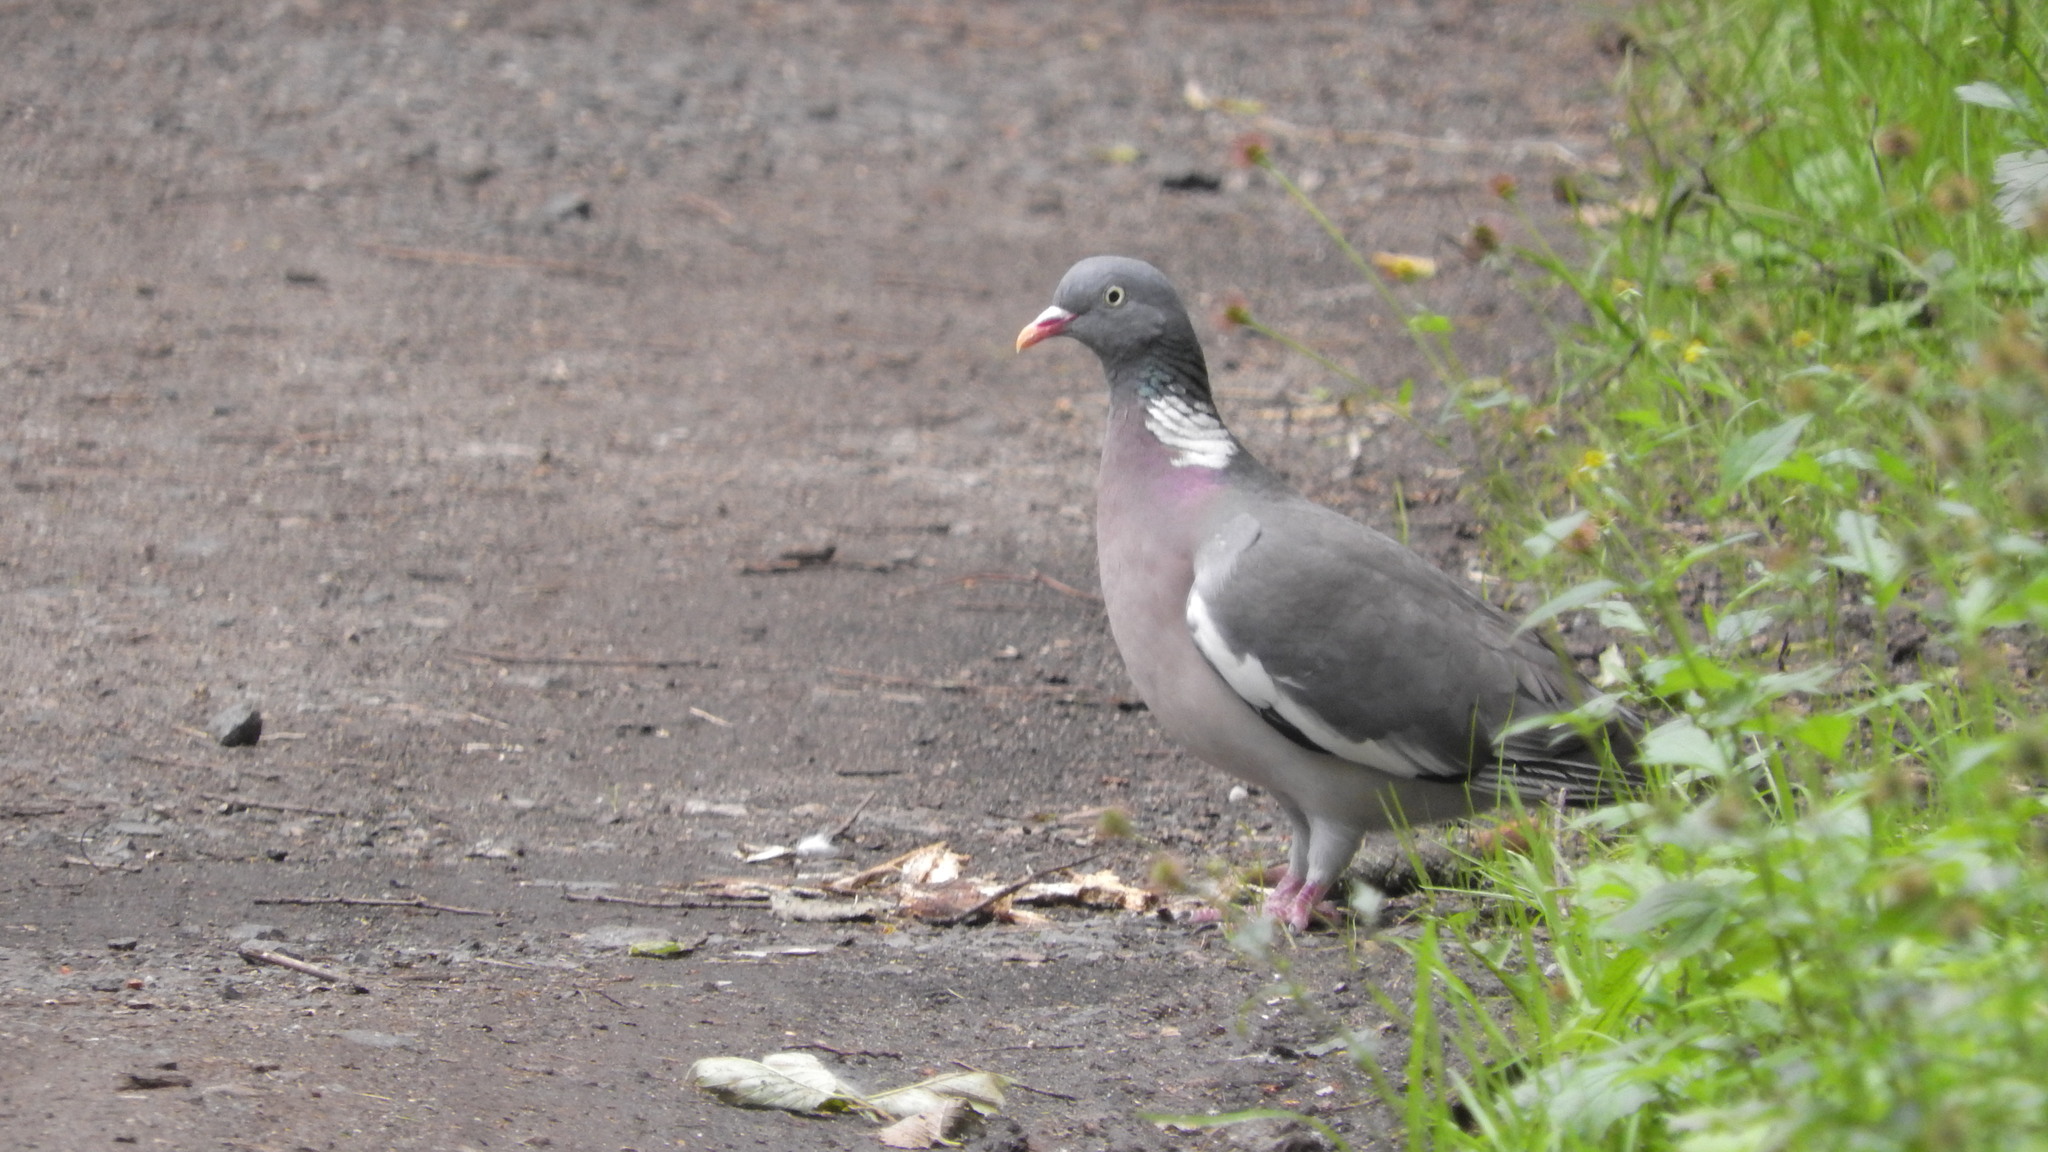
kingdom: Animalia
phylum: Chordata
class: Aves
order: Columbiformes
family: Columbidae
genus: Columba
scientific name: Columba palumbus
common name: Common wood pigeon
